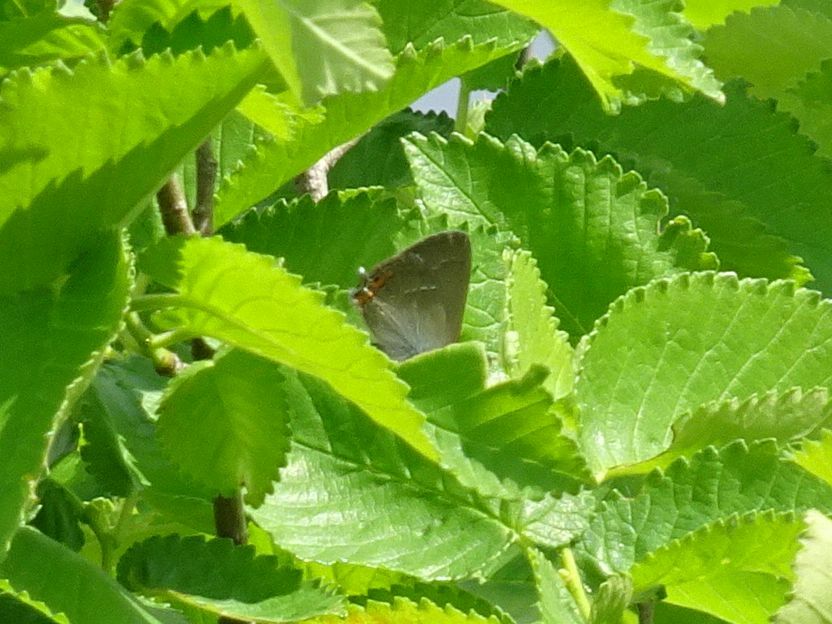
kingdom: Animalia
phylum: Arthropoda
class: Insecta
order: Lepidoptera
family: Lycaenidae
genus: Strymon
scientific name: Strymon acaciae
